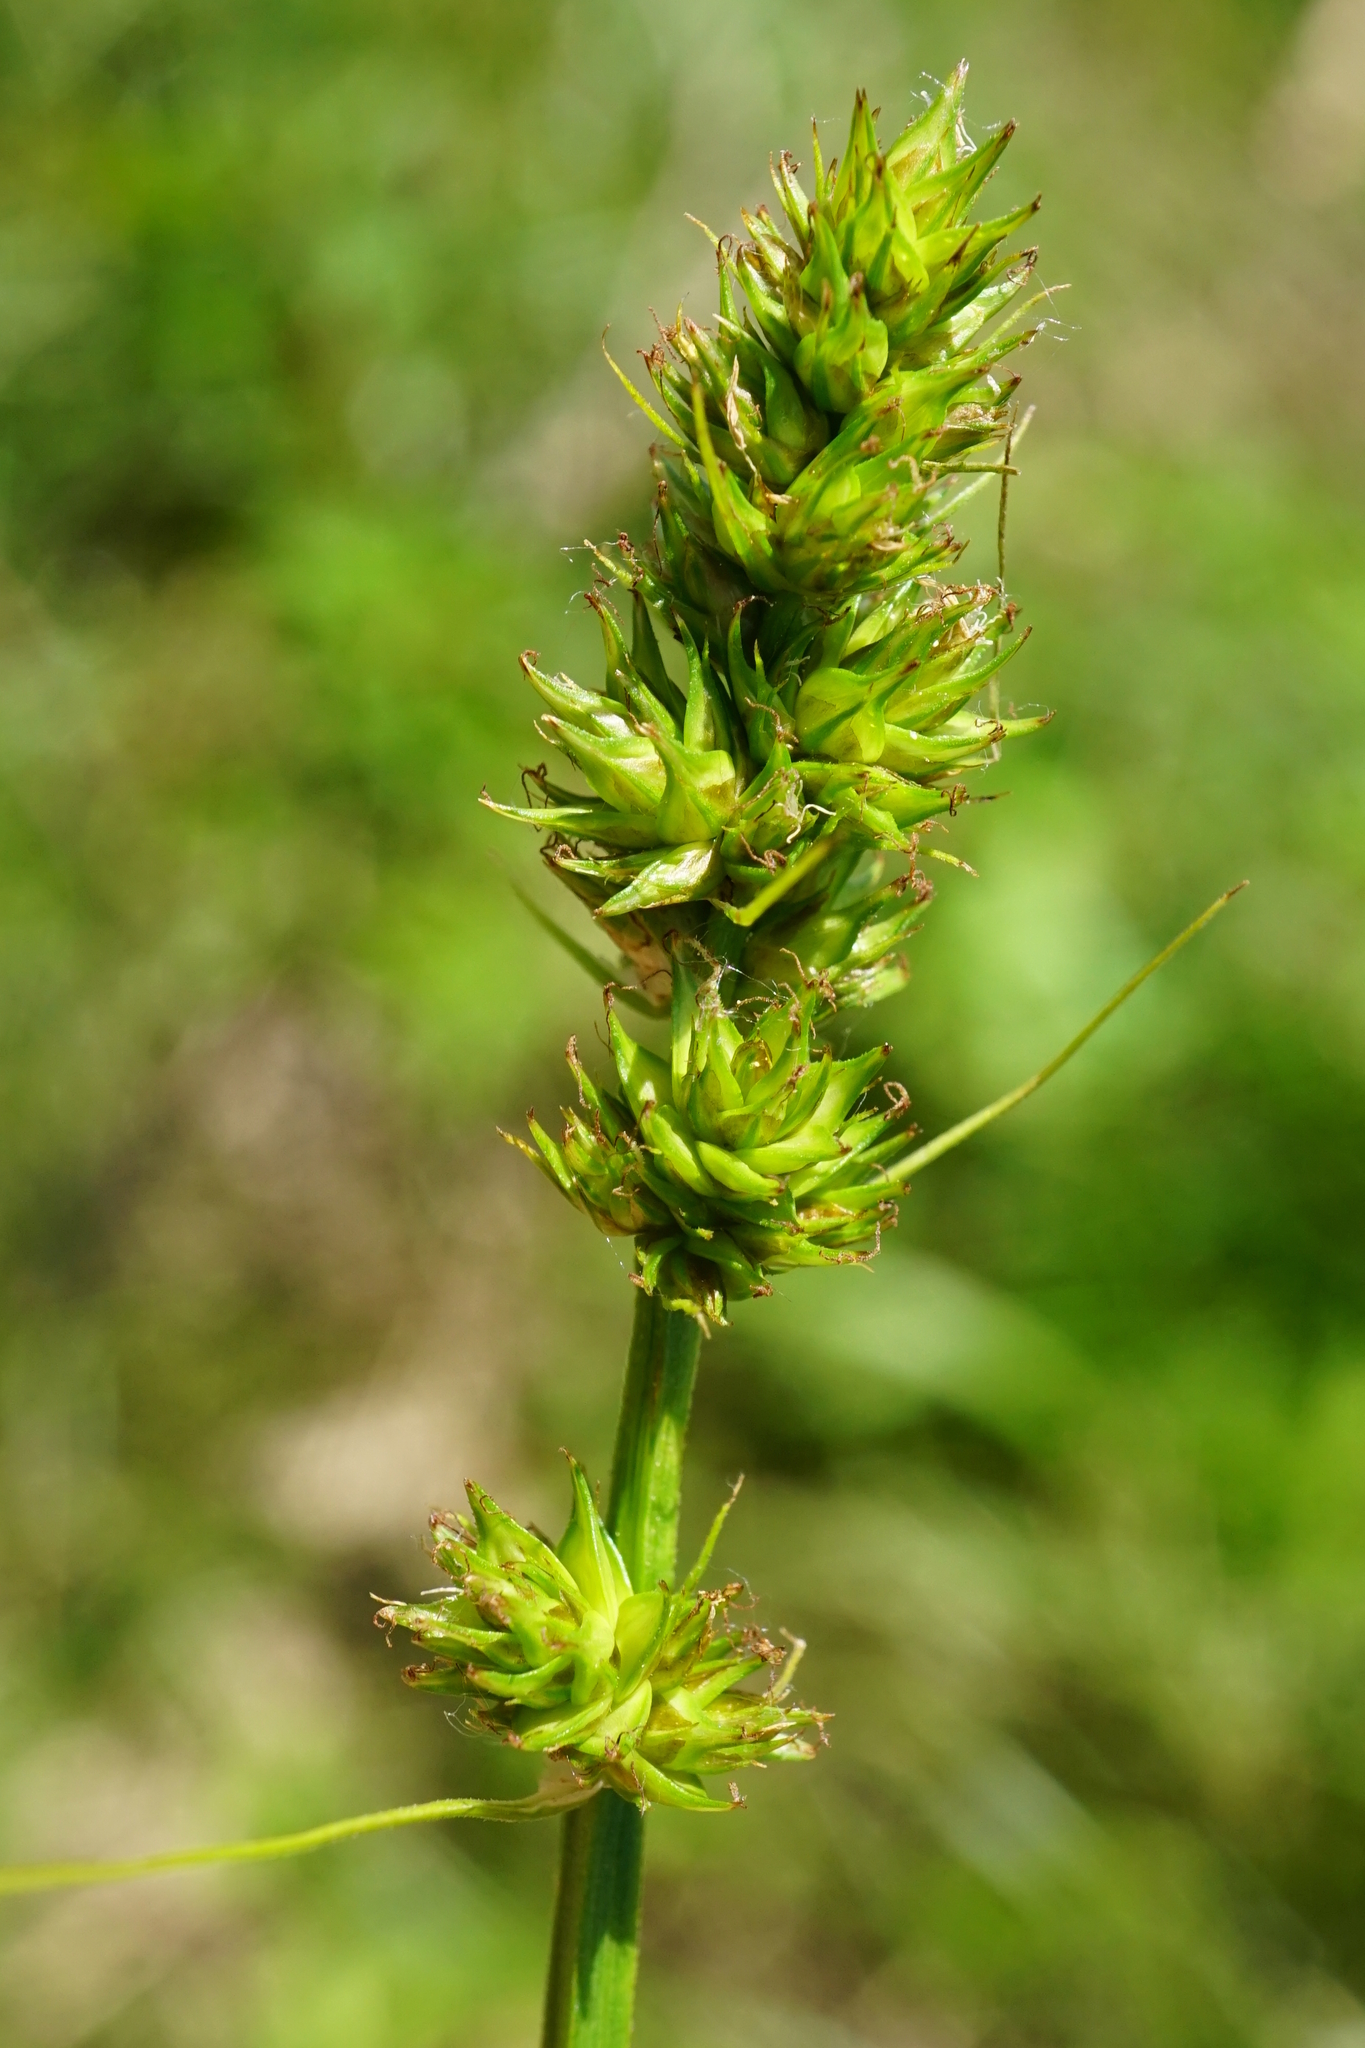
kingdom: Plantae
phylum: Tracheophyta
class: Liliopsida
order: Poales
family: Cyperaceae
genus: Carex
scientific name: Carex otrubae
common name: False fox-sedge
